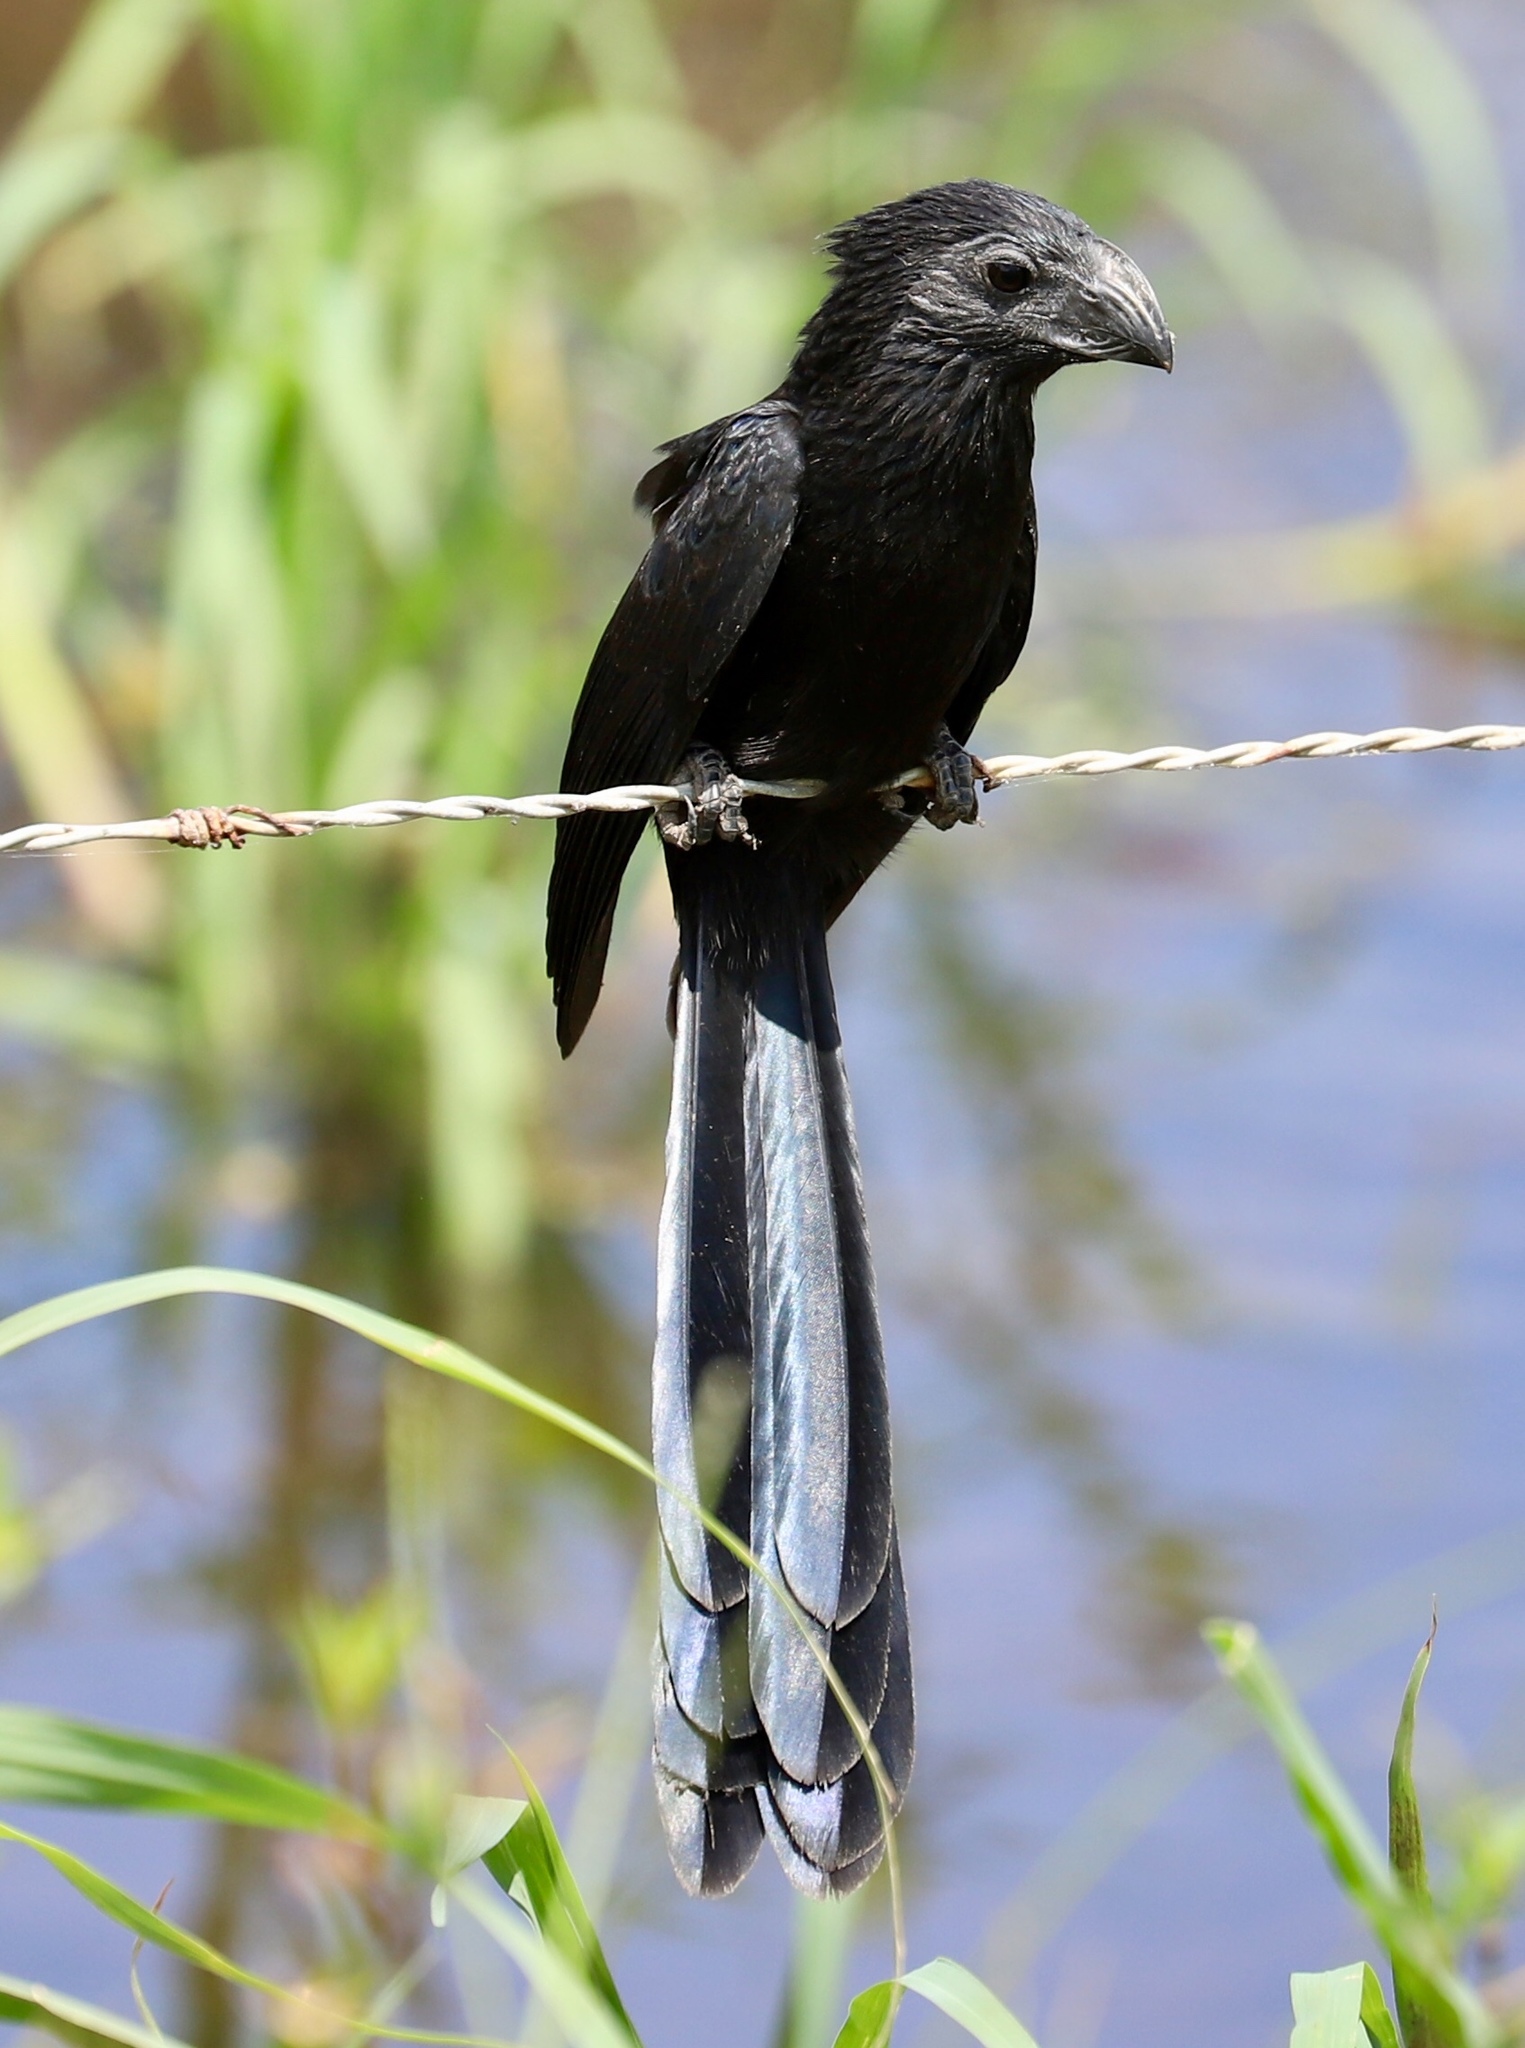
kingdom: Animalia
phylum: Chordata
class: Aves
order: Cuculiformes
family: Cuculidae
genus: Crotophaga
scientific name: Crotophaga sulcirostris
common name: Groove-billed ani
